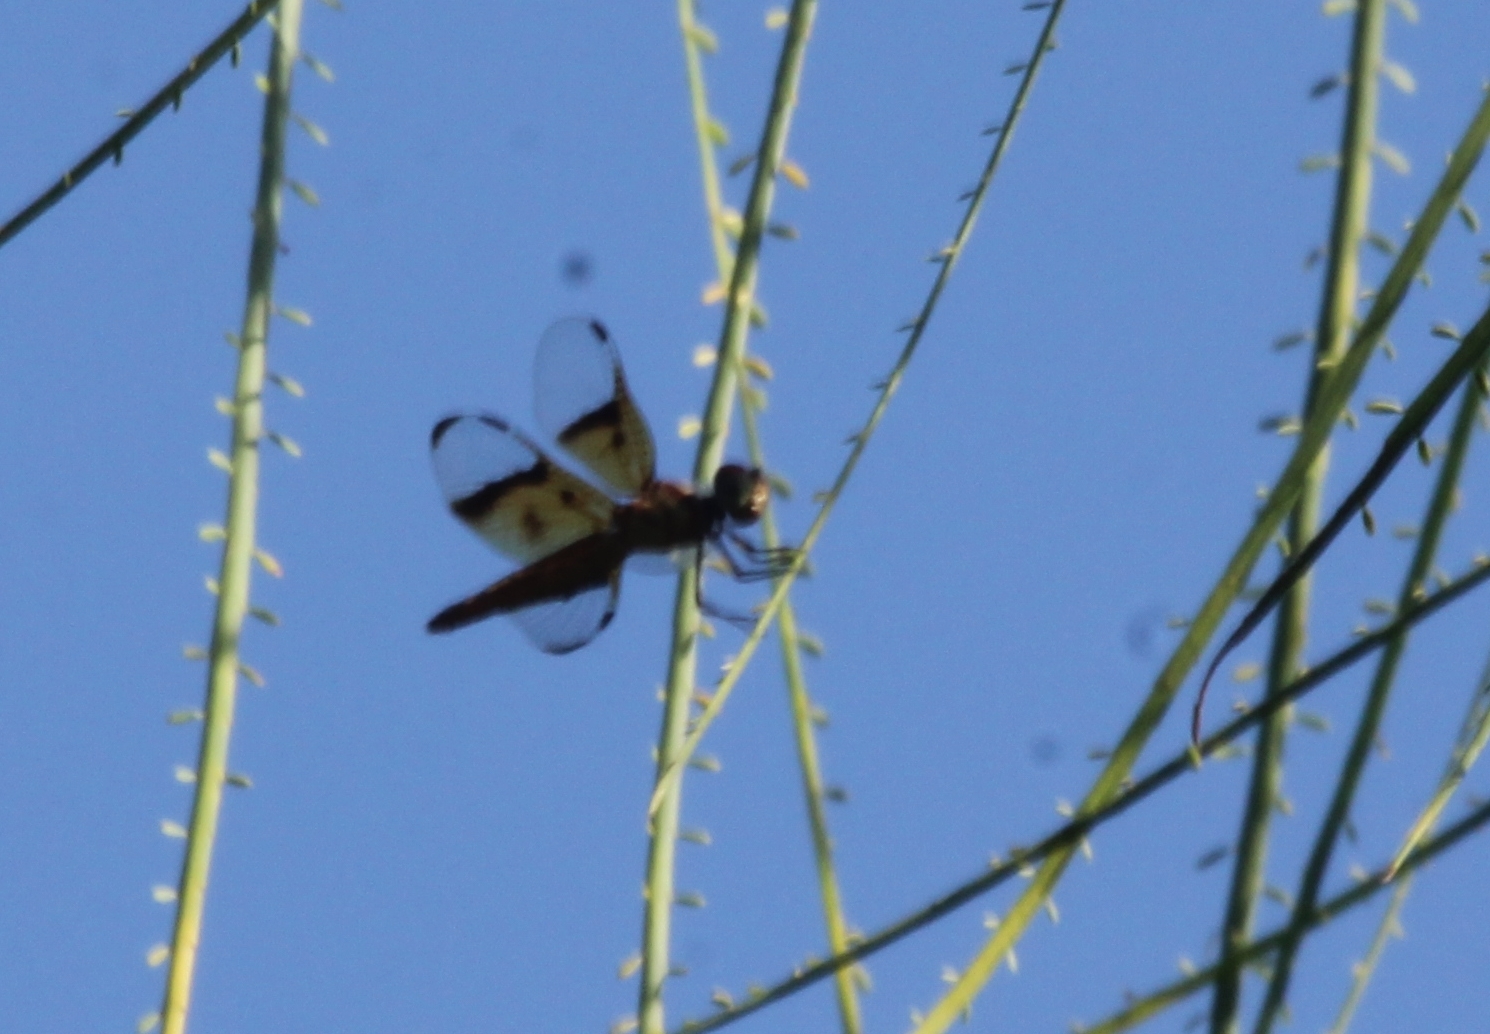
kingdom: Animalia
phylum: Arthropoda
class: Insecta
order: Odonata
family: Libellulidae
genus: Perithemis
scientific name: Perithemis domitia
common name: Slough amberwing
